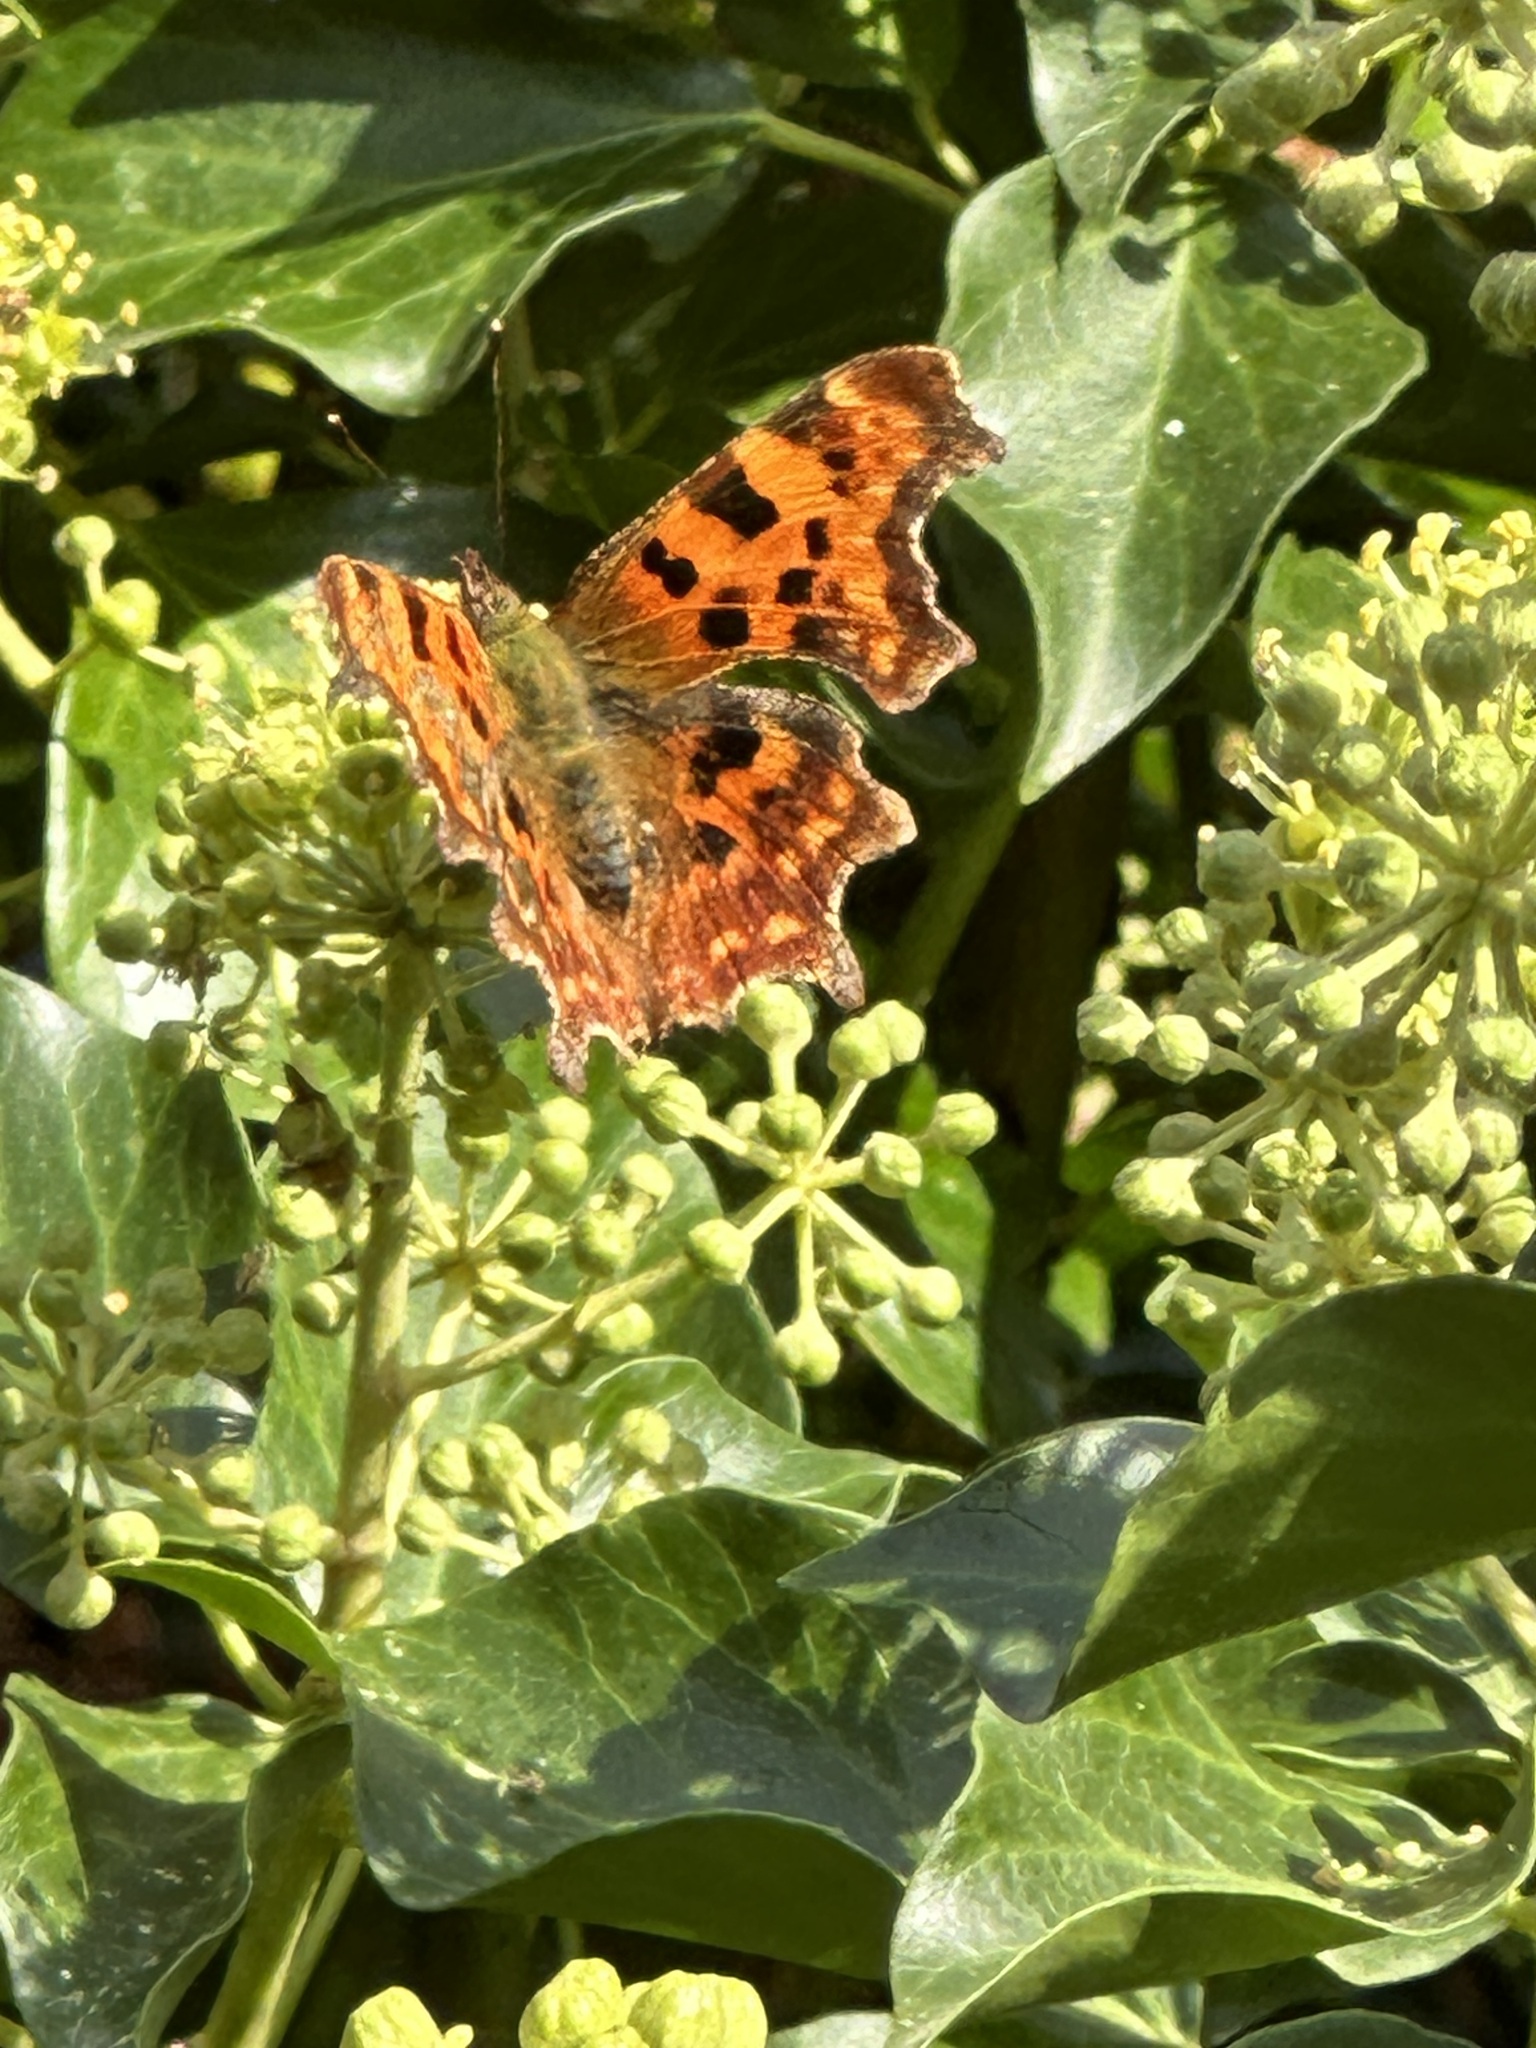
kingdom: Animalia
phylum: Arthropoda
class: Insecta
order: Lepidoptera
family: Nymphalidae
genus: Polygonia
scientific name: Polygonia c-album
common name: Comma
